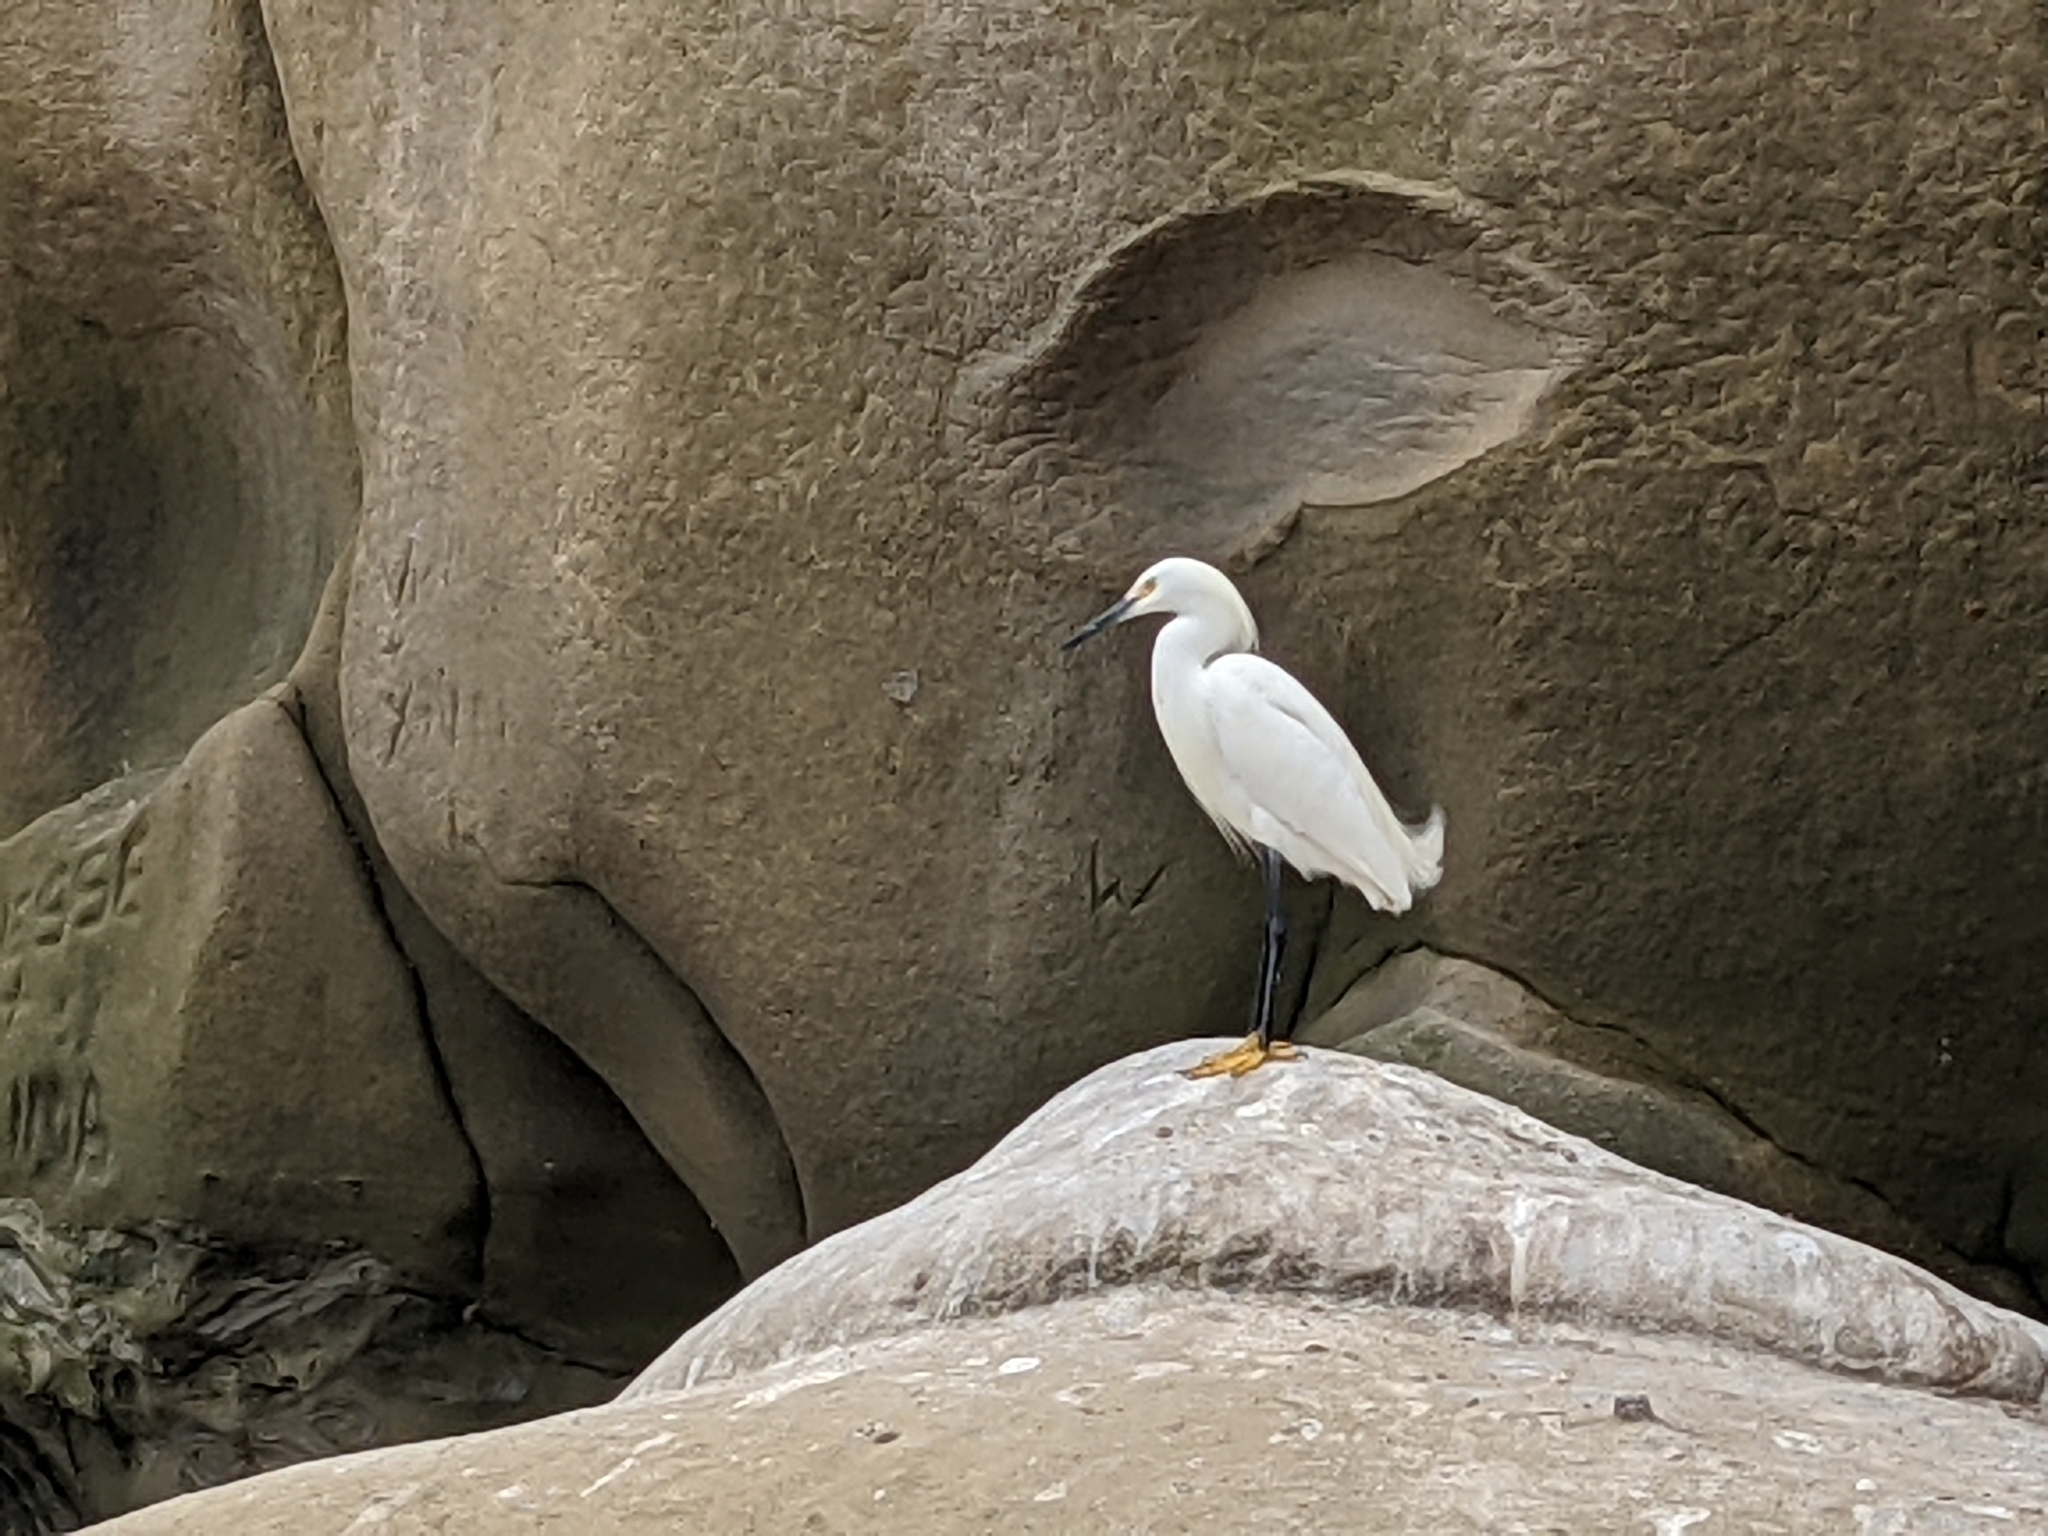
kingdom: Animalia
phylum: Chordata
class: Aves
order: Pelecaniformes
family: Ardeidae
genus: Egretta
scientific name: Egretta thula
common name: Snowy egret
